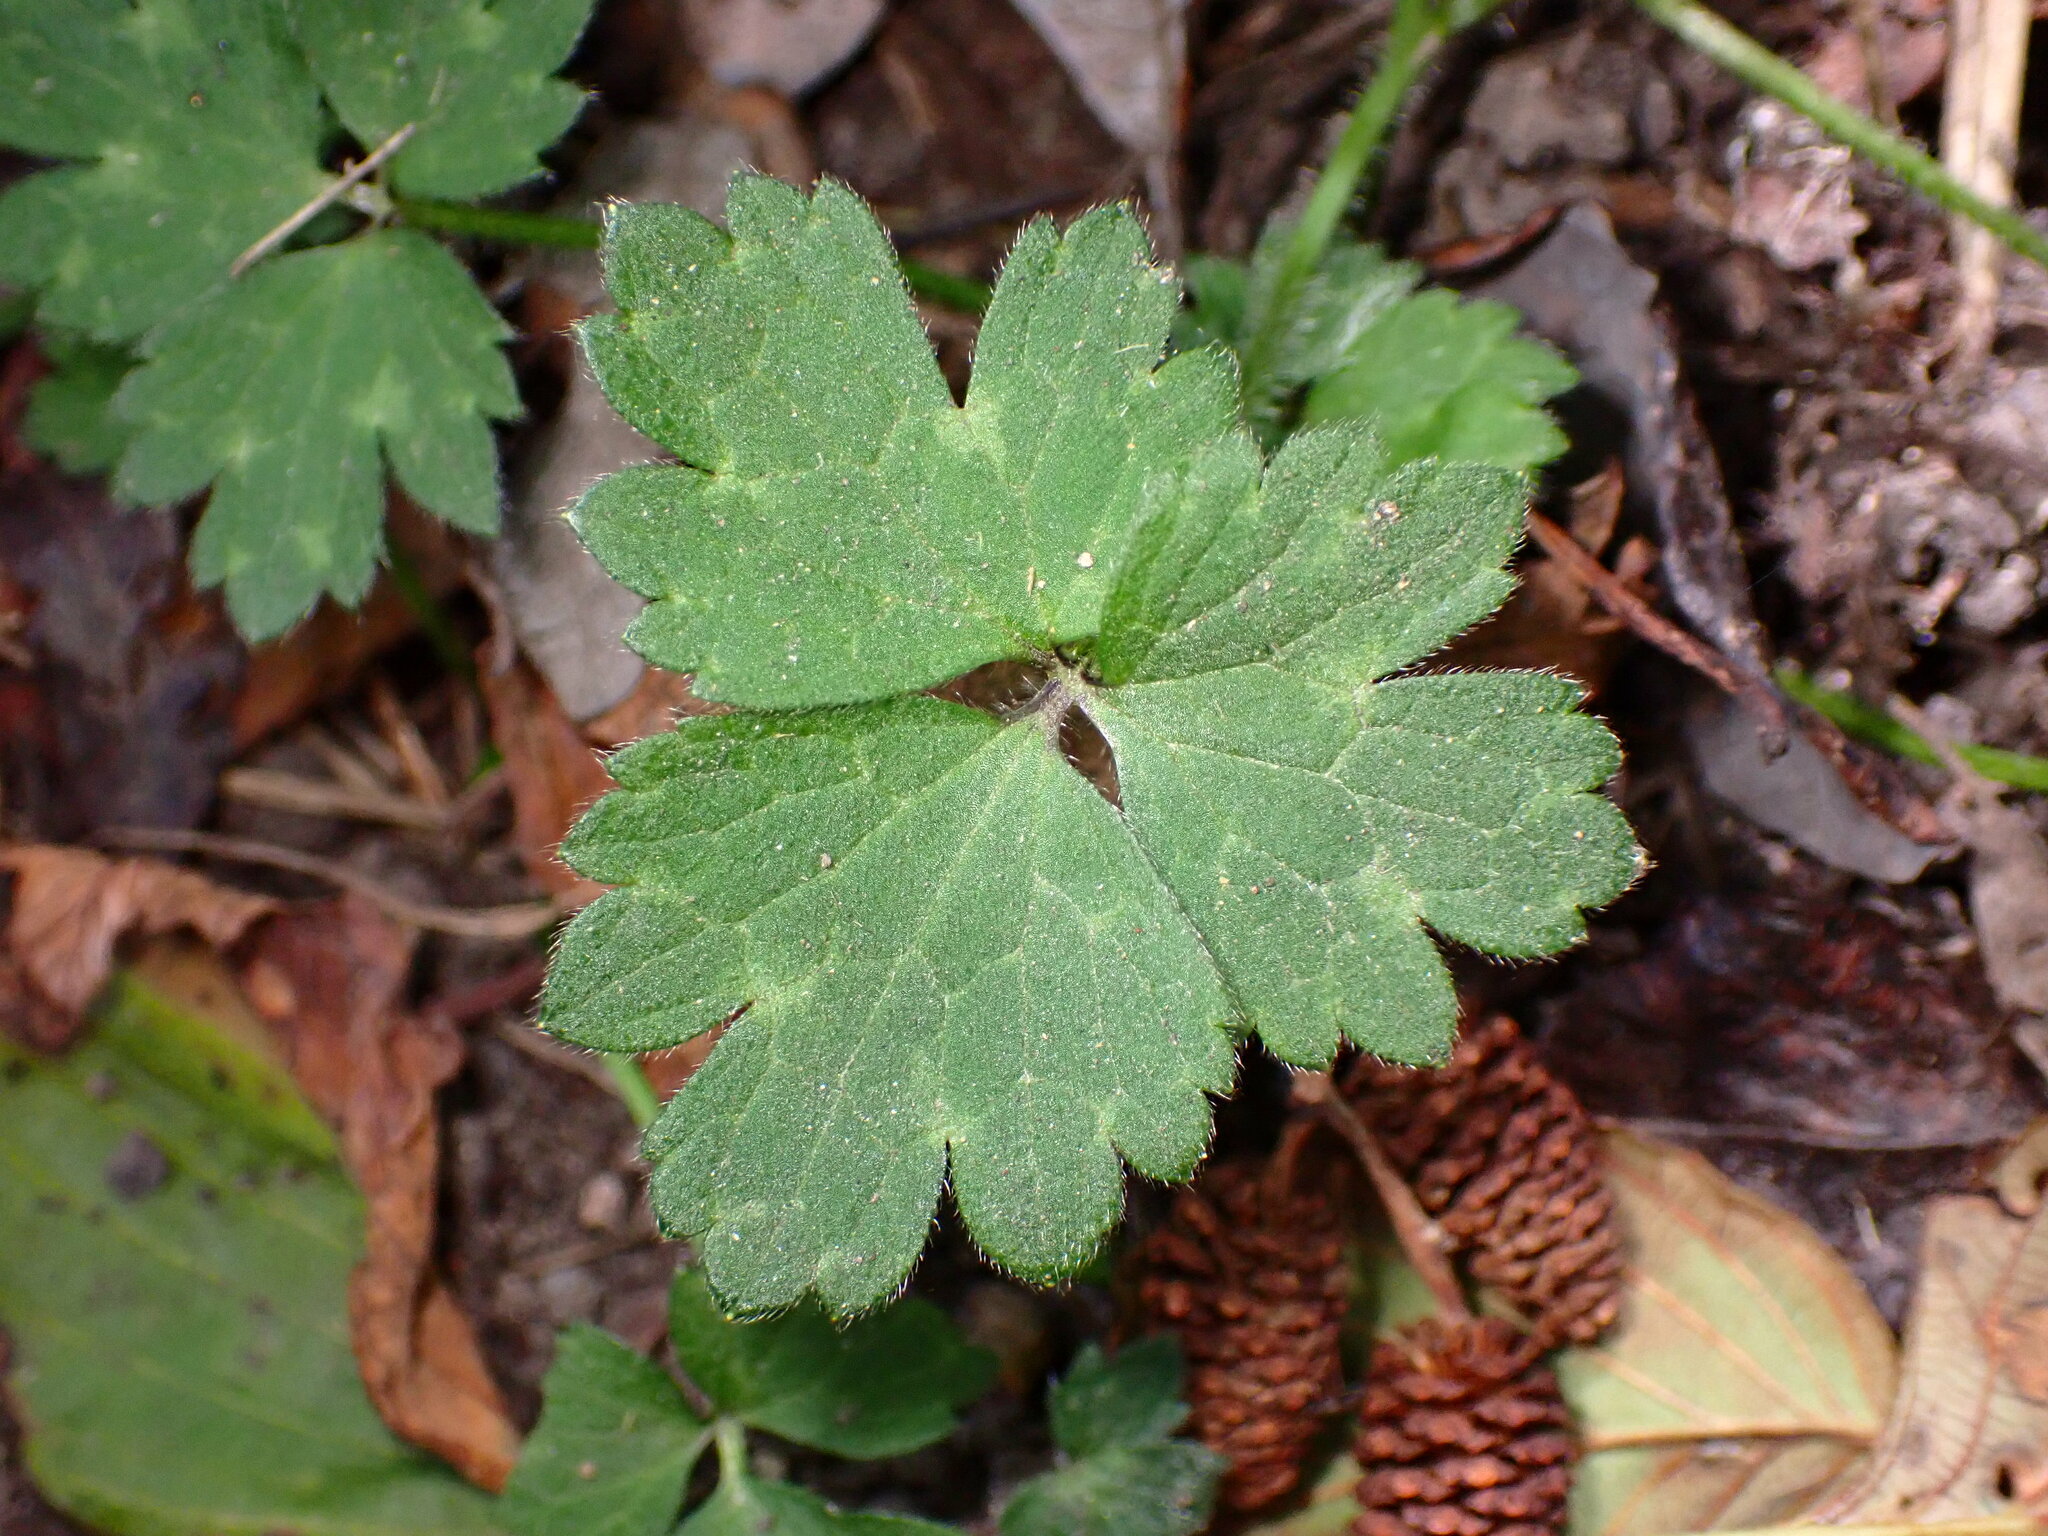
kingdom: Plantae
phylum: Tracheophyta
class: Magnoliopsida
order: Ranunculales
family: Ranunculaceae
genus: Ranunculus
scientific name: Ranunculus repens
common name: Creeping buttercup
